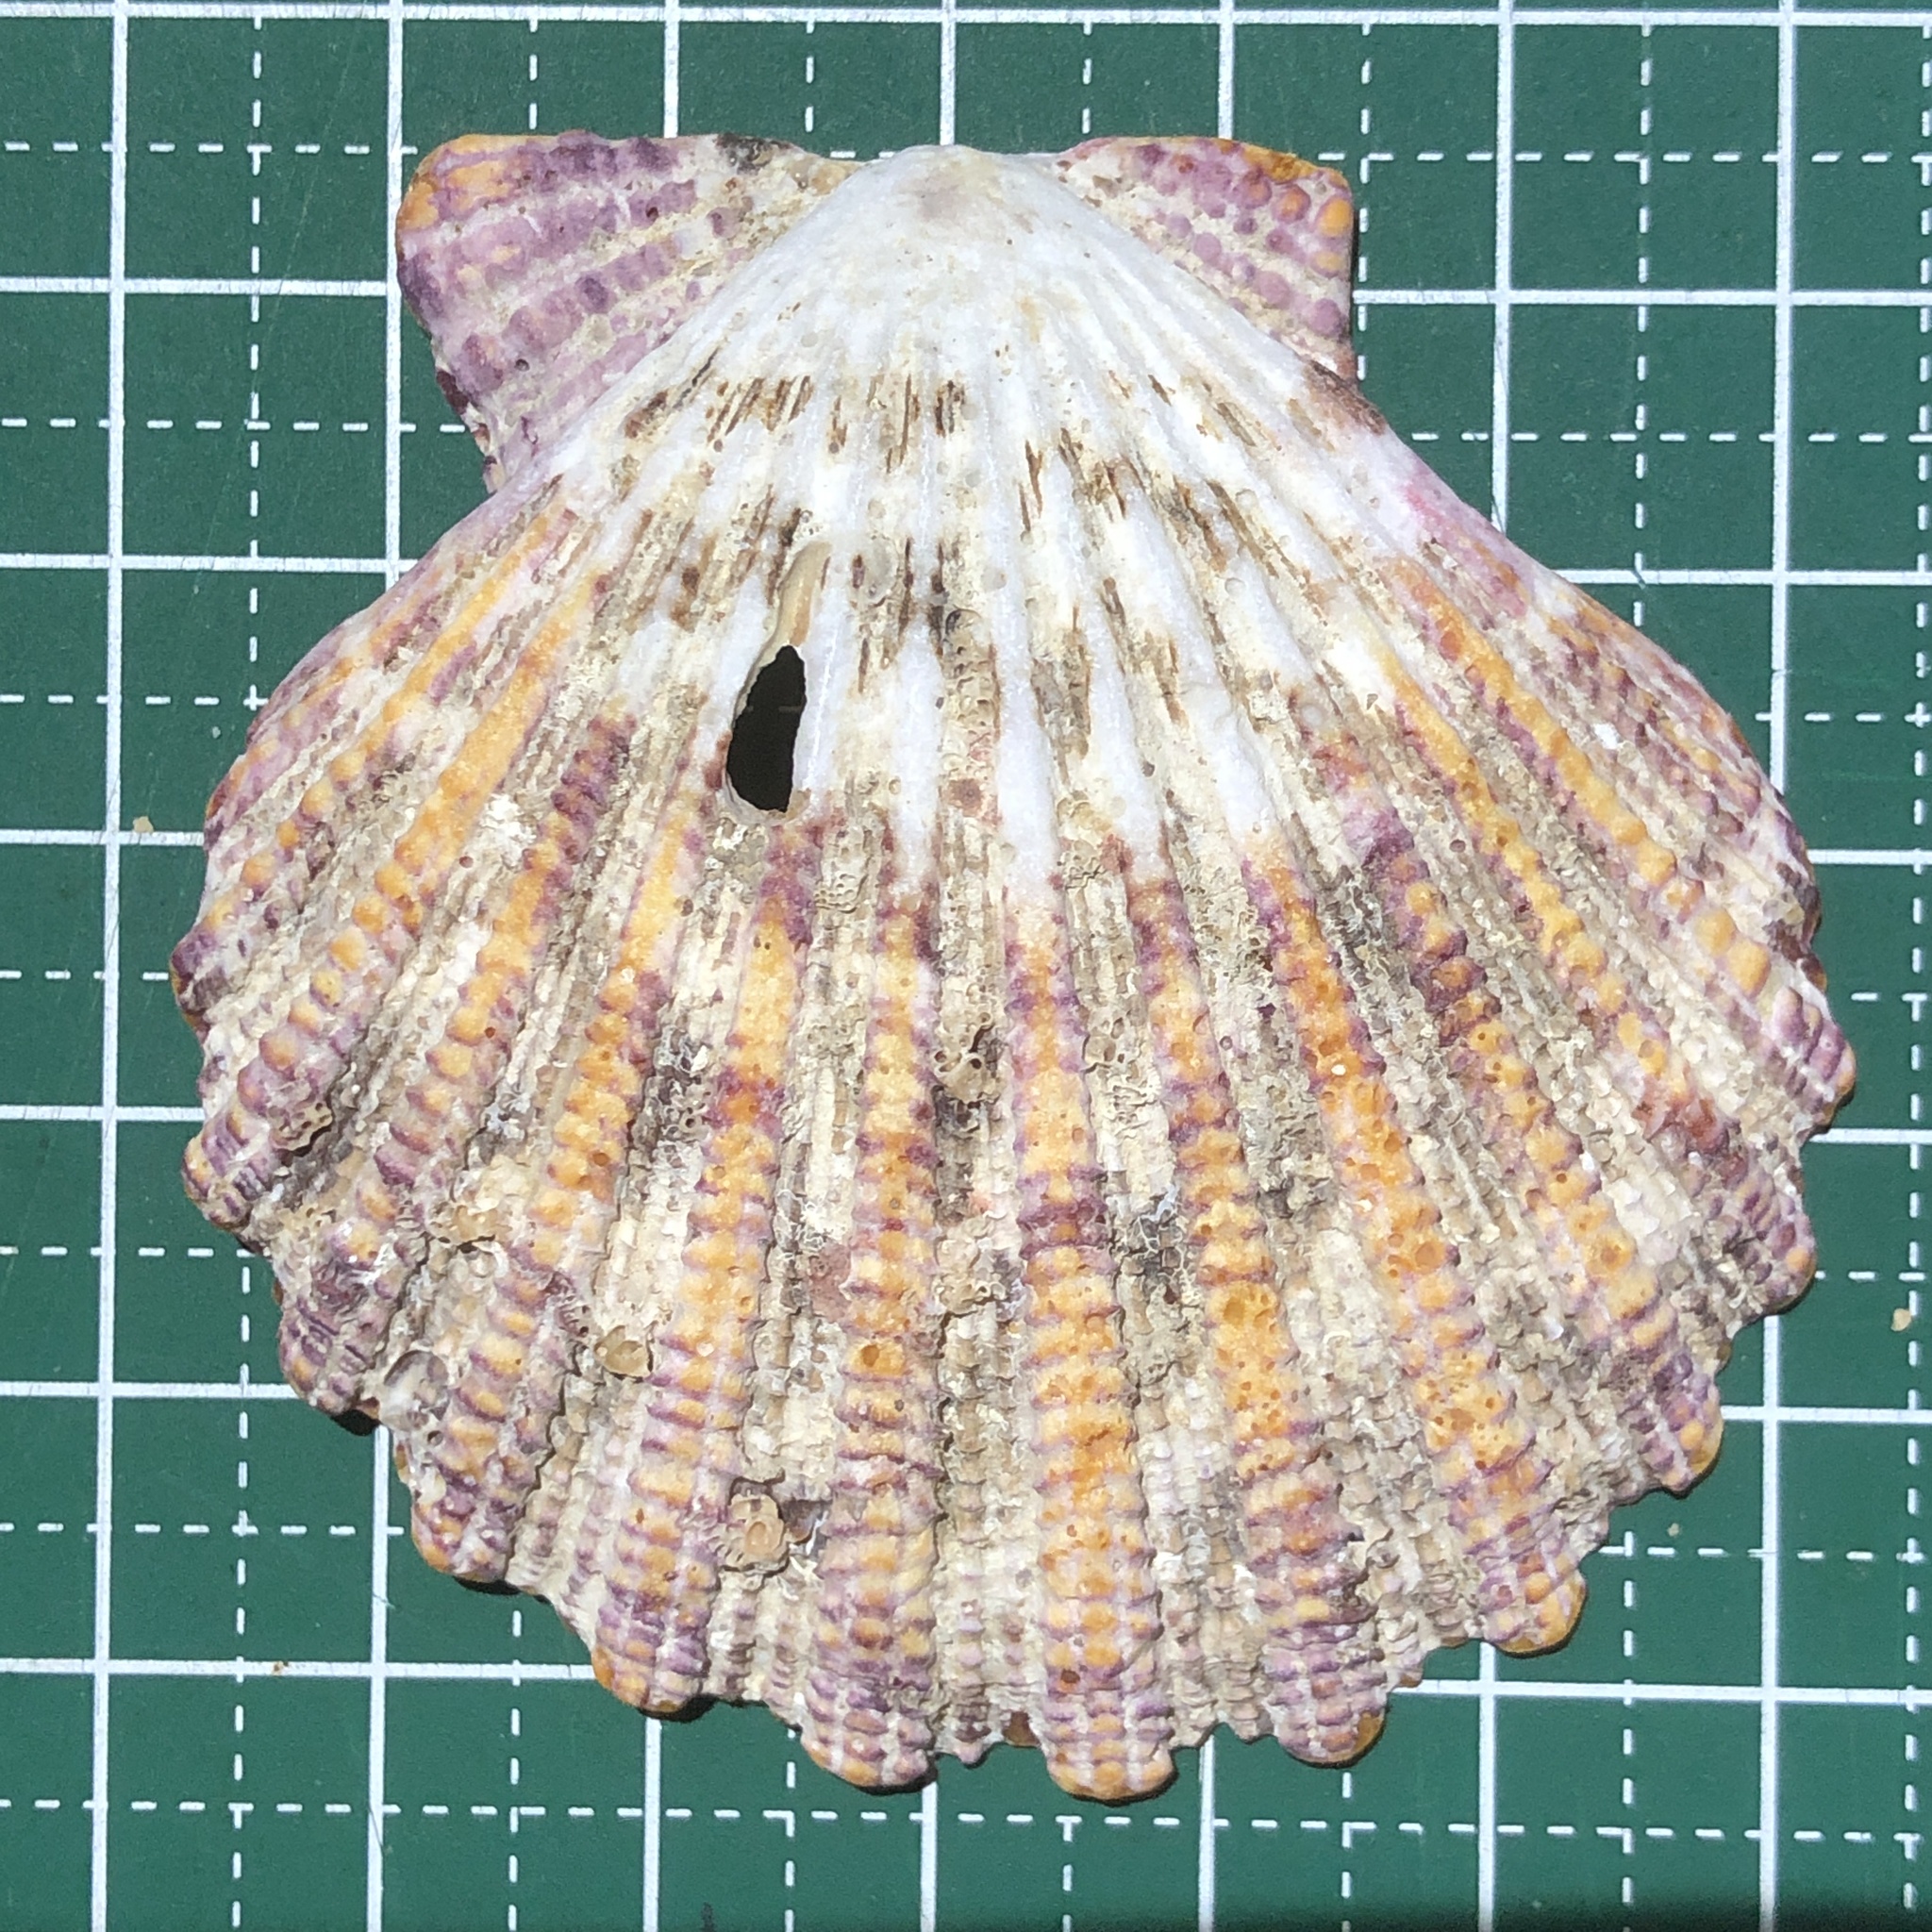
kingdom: Animalia
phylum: Mollusca
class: Bivalvia
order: Pectinida
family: Pectinidae
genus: Gloripallium
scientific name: Gloripallium pallium
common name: Royal cloak scallop
